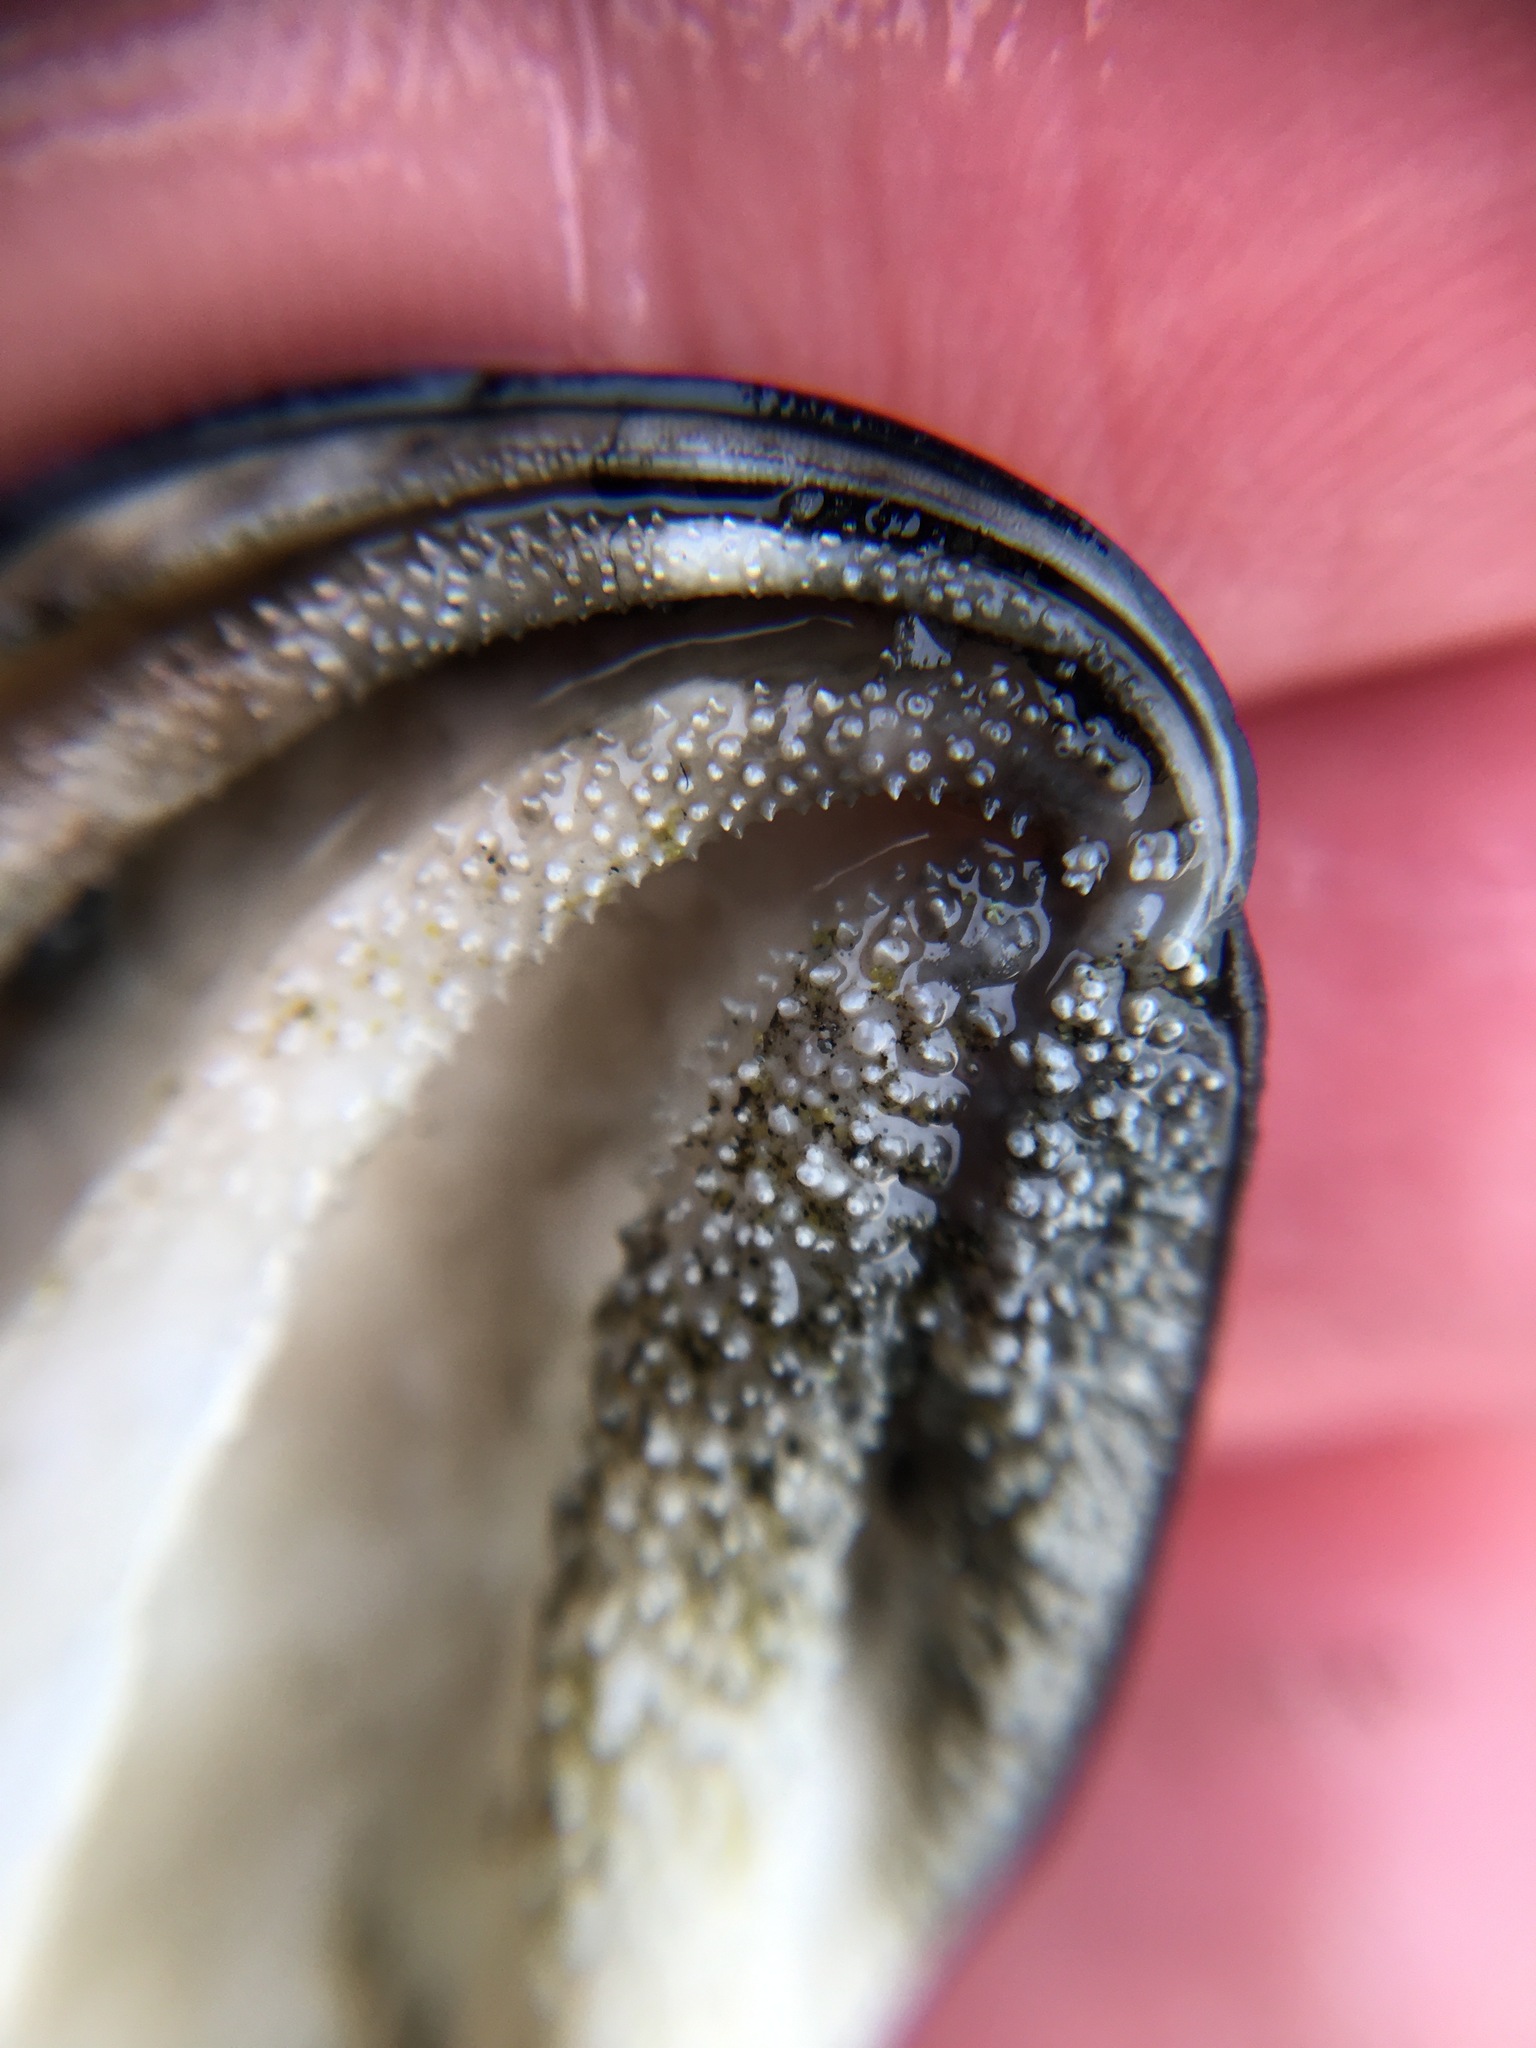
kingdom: Animalia
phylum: Mollusca
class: Gastropoda
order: Trochida
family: Turbinidae
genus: Megastraea
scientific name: Megastraea undosa
